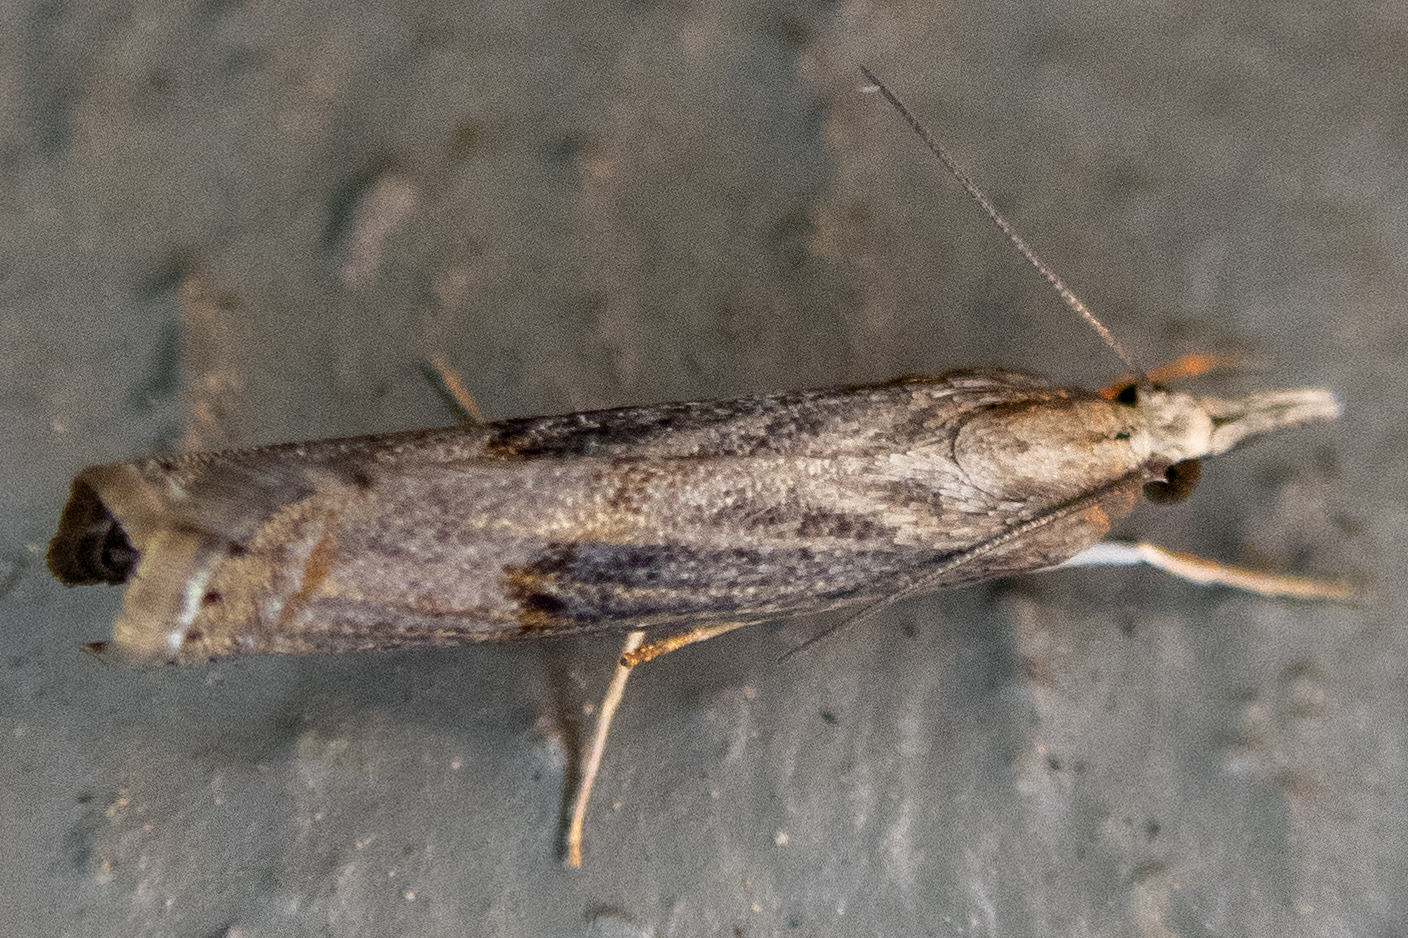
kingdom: Animalia
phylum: Arthropoda
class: Insecta
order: Lepidoptera
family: Crambidae
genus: Parapediasia
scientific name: Parapediasia teterellus
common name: Bluegrass webworm moth
